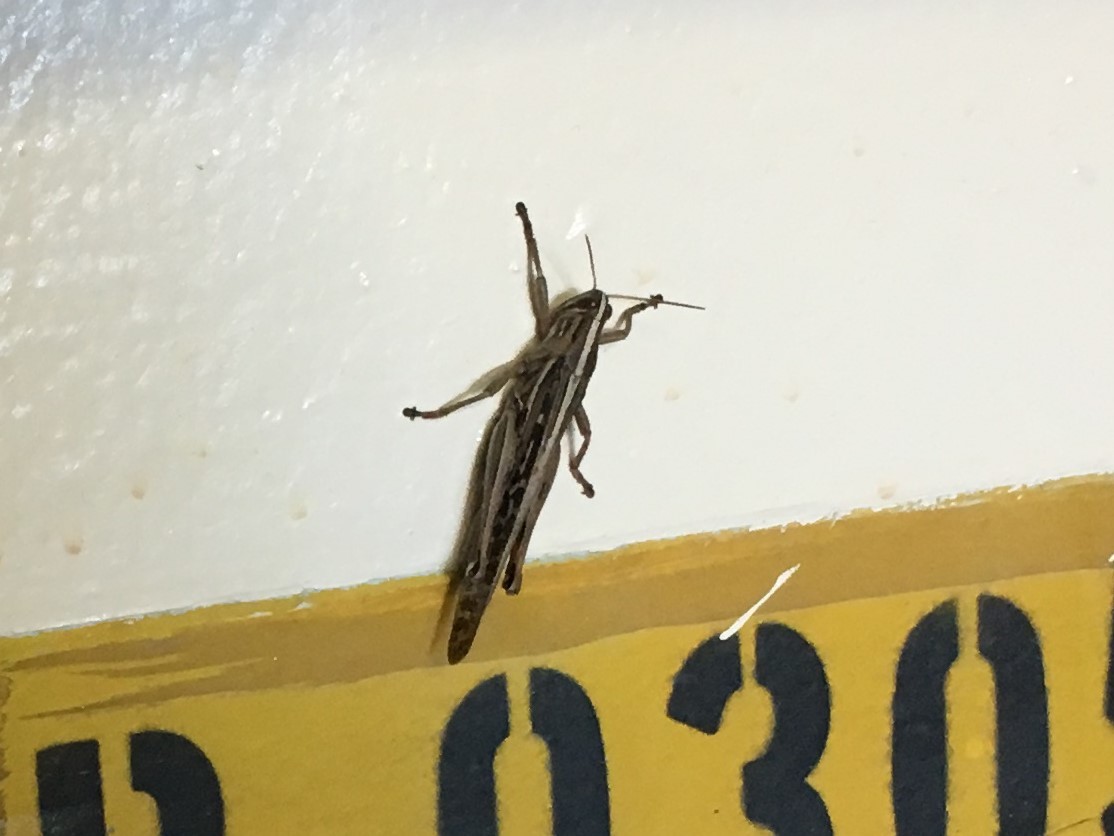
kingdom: Animalia
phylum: Arthropoda
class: Insecta
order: Orthoptera
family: Acrididae
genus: Schistocerca
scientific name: Schistocerca americana
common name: American bird locust
